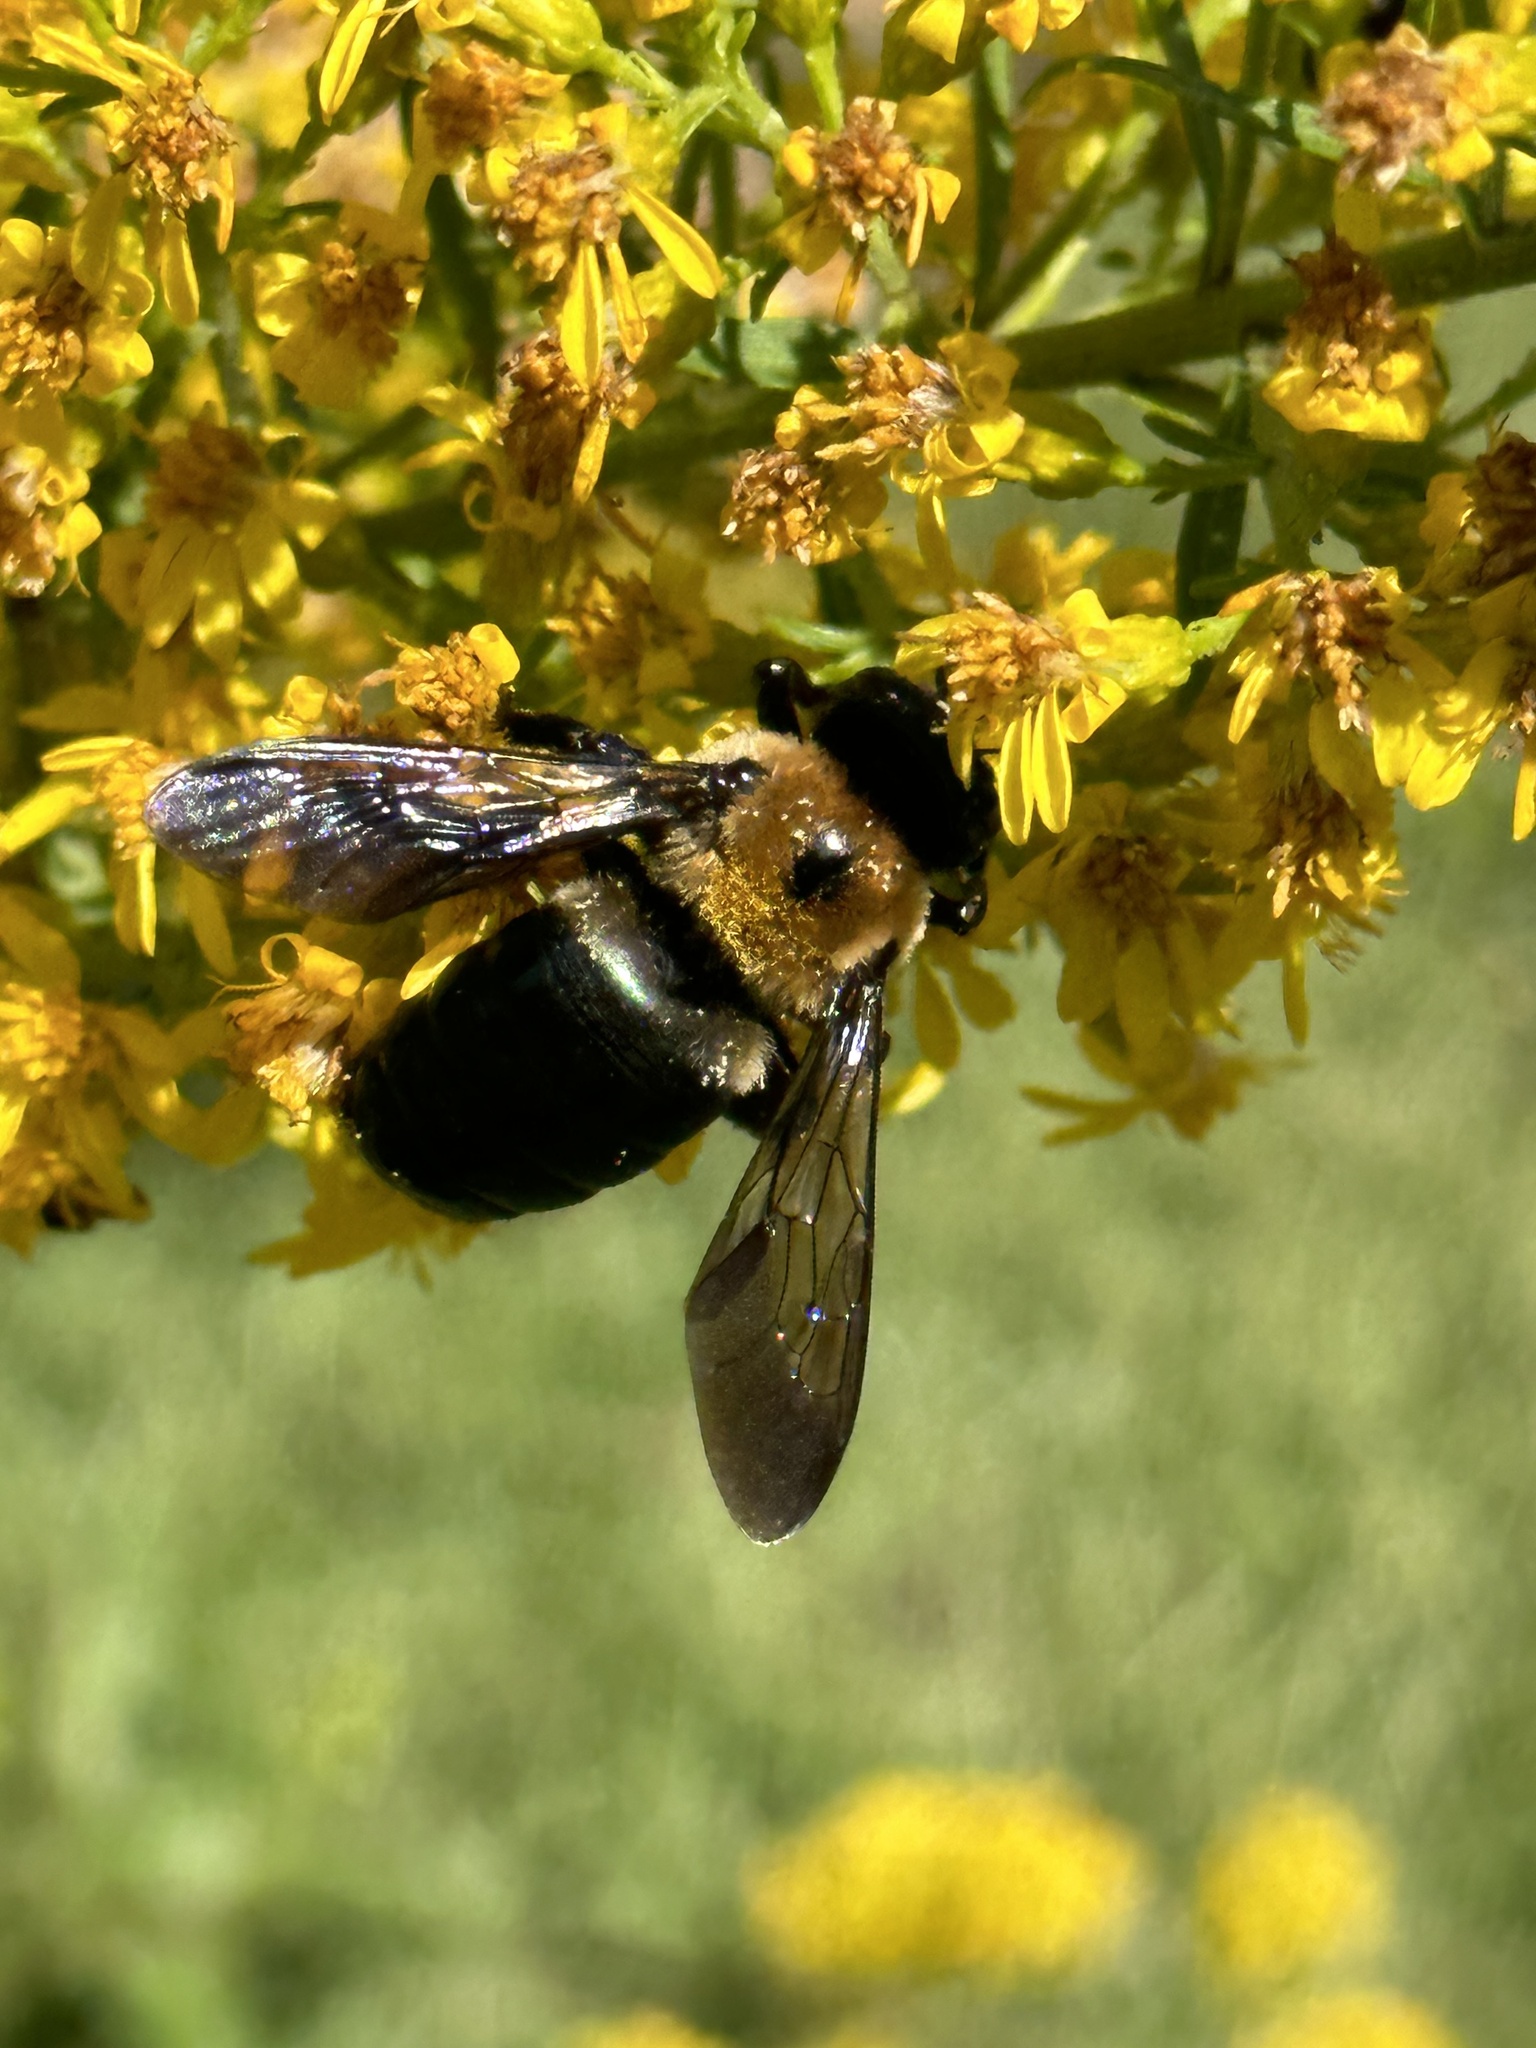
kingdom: Animalia
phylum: Arthropoda
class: Insecta
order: Hymenoptera
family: Apidae
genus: Xylocopa
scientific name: Xylocopa virginica
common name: Carpenter bee
